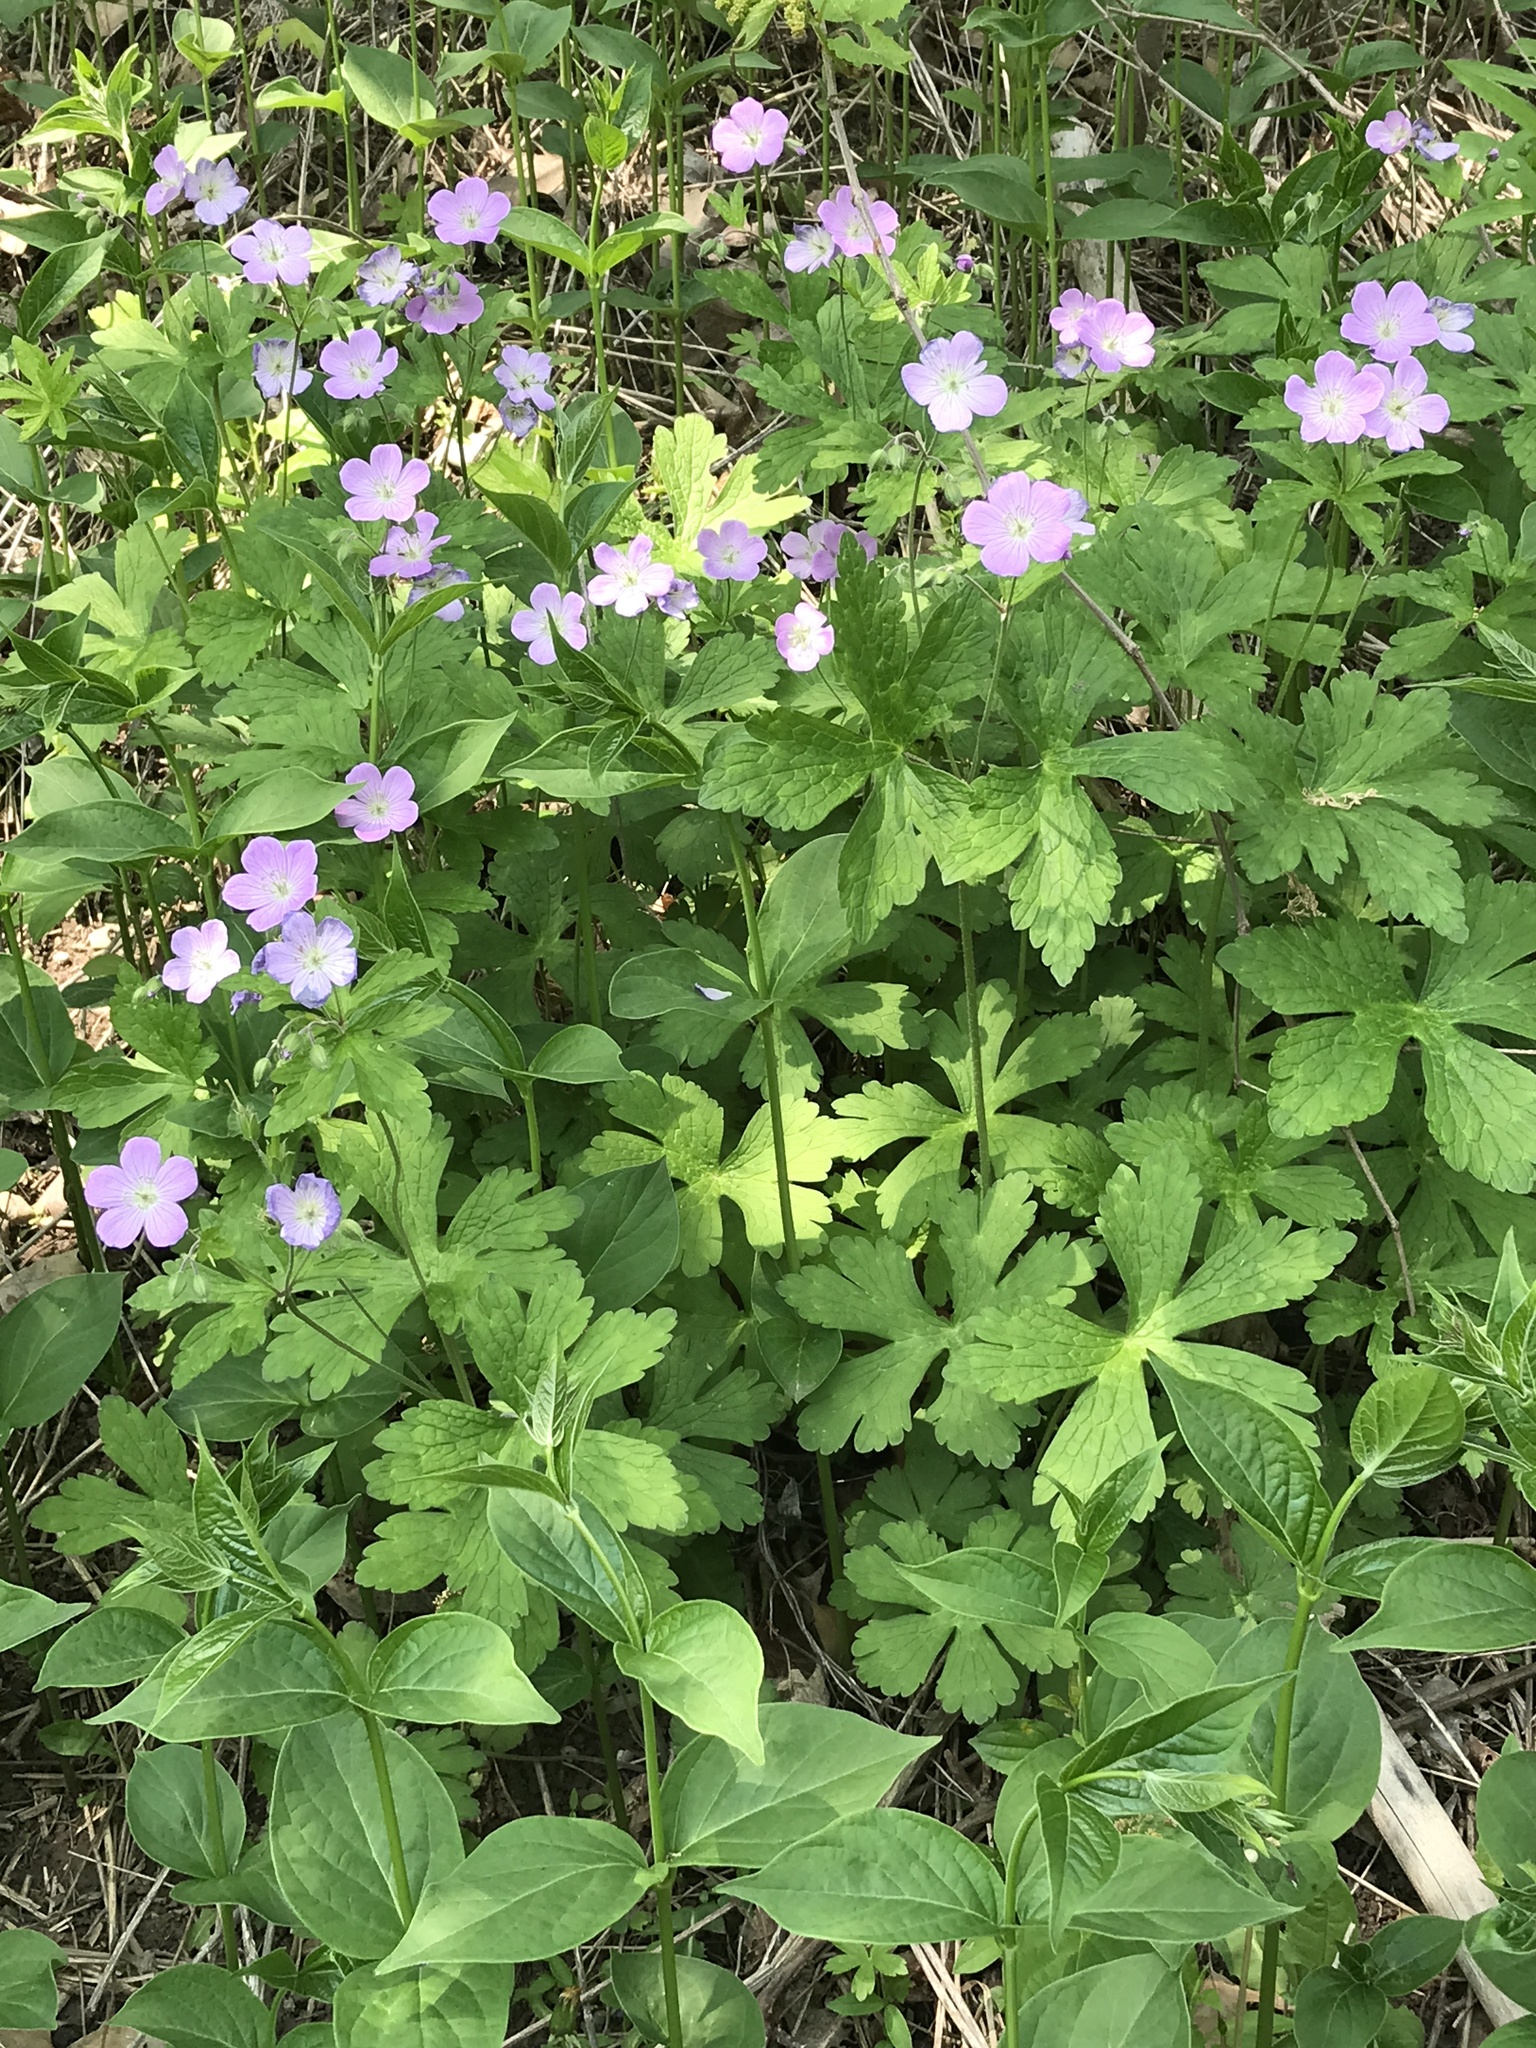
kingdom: Plantae
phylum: Tracheophyta
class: Magnoliopsida
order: Geraniales
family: Geraniaceae
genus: Geranium
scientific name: Geranium maculatum
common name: Spotted geranium
